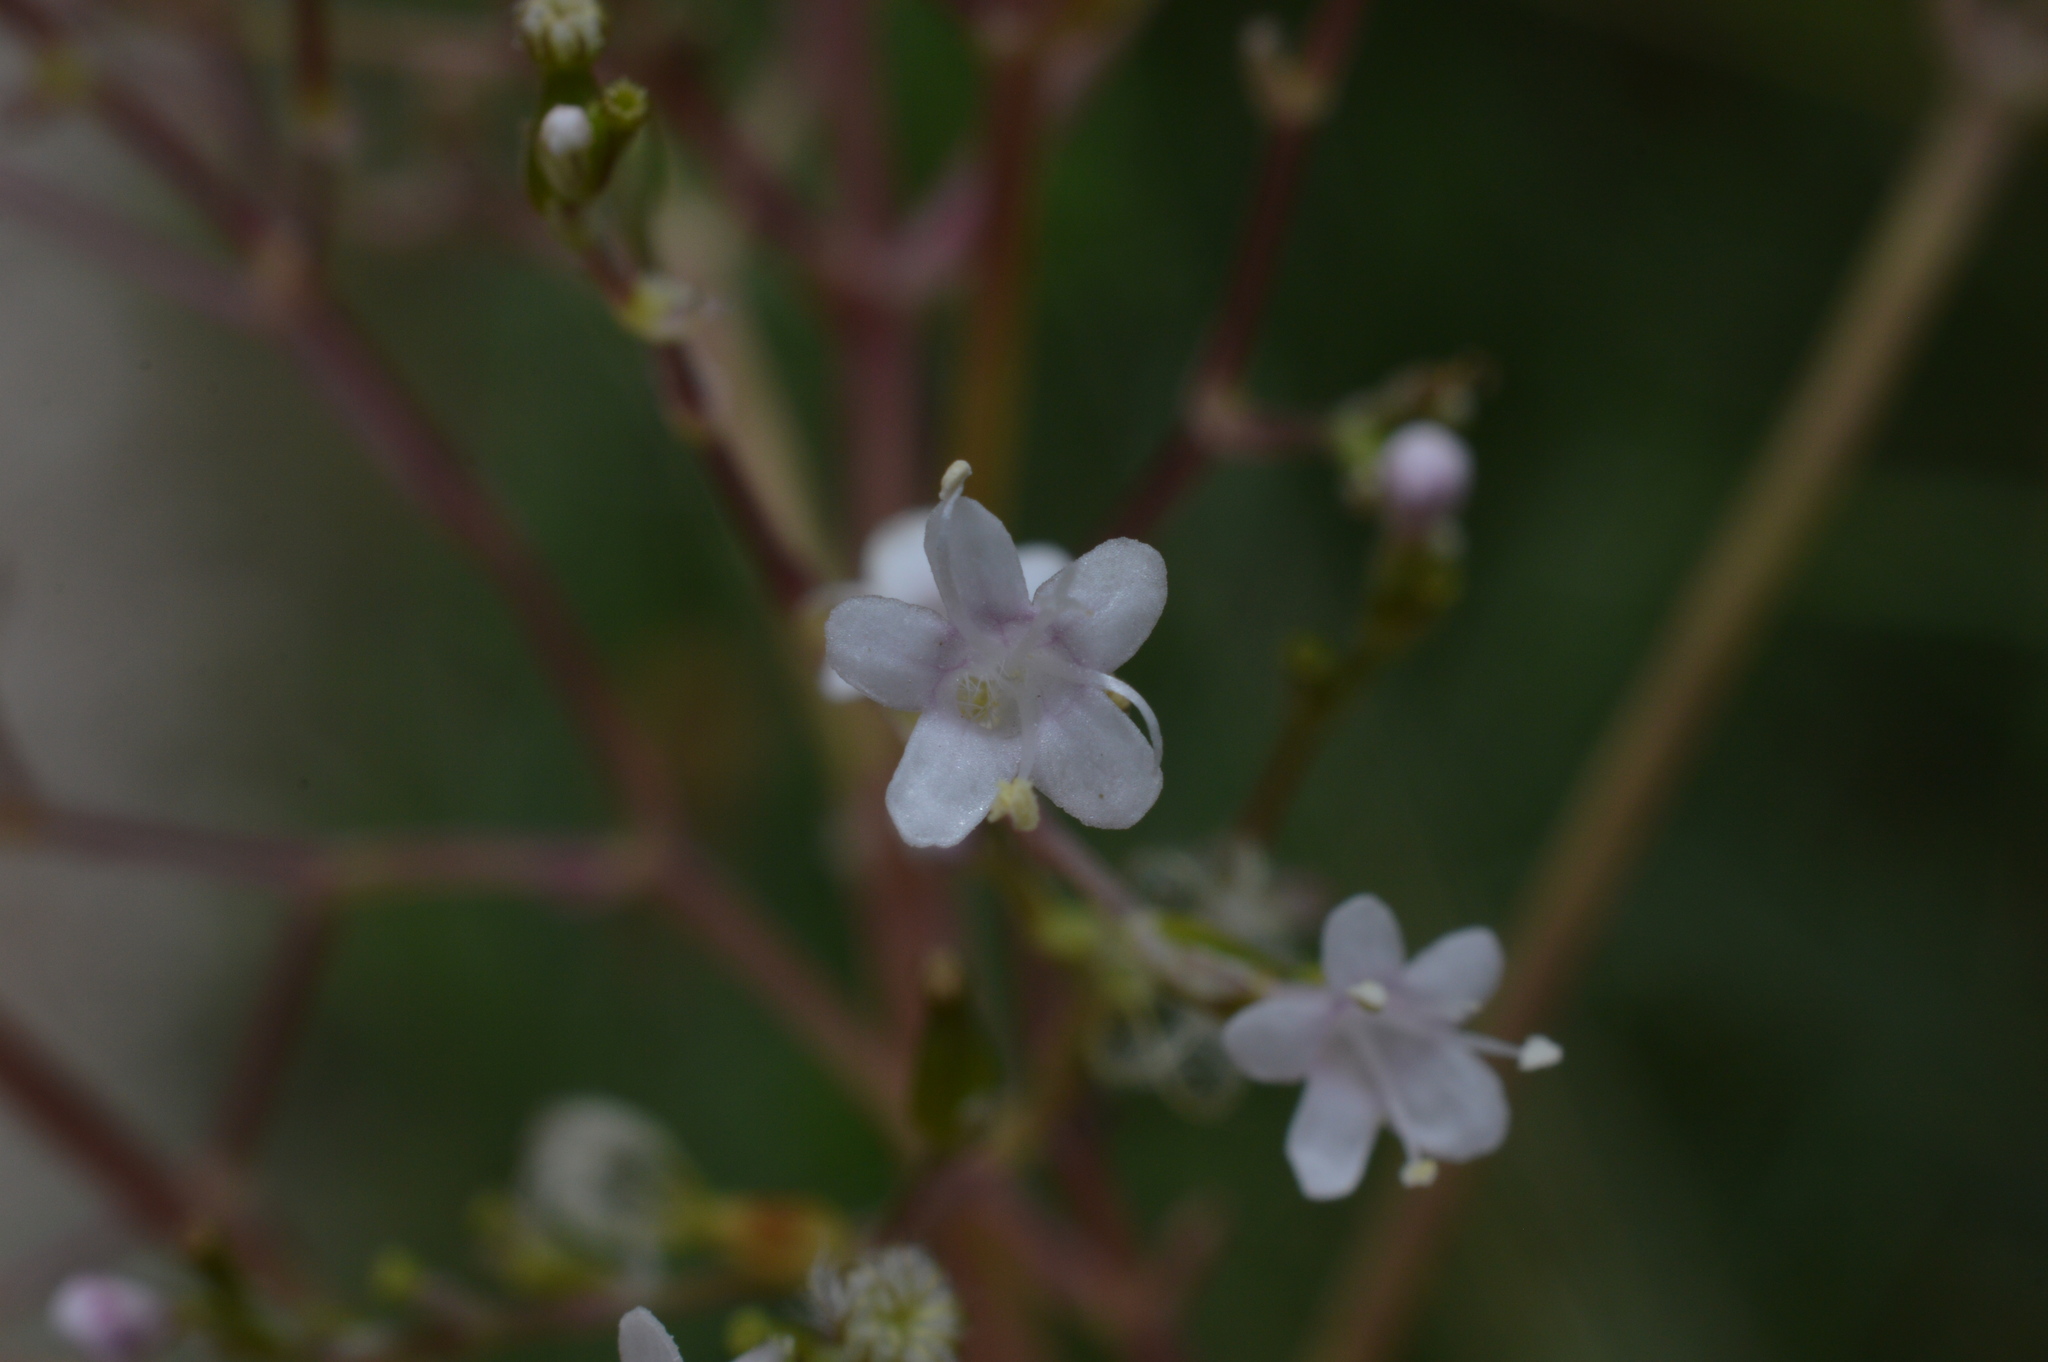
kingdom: Plantae
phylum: Tracheophyta
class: Magnoliopsida
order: Dipsacales
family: Caprifoliaceae
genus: Valeriana
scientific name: Valeriana officinalis
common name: Common valerian
